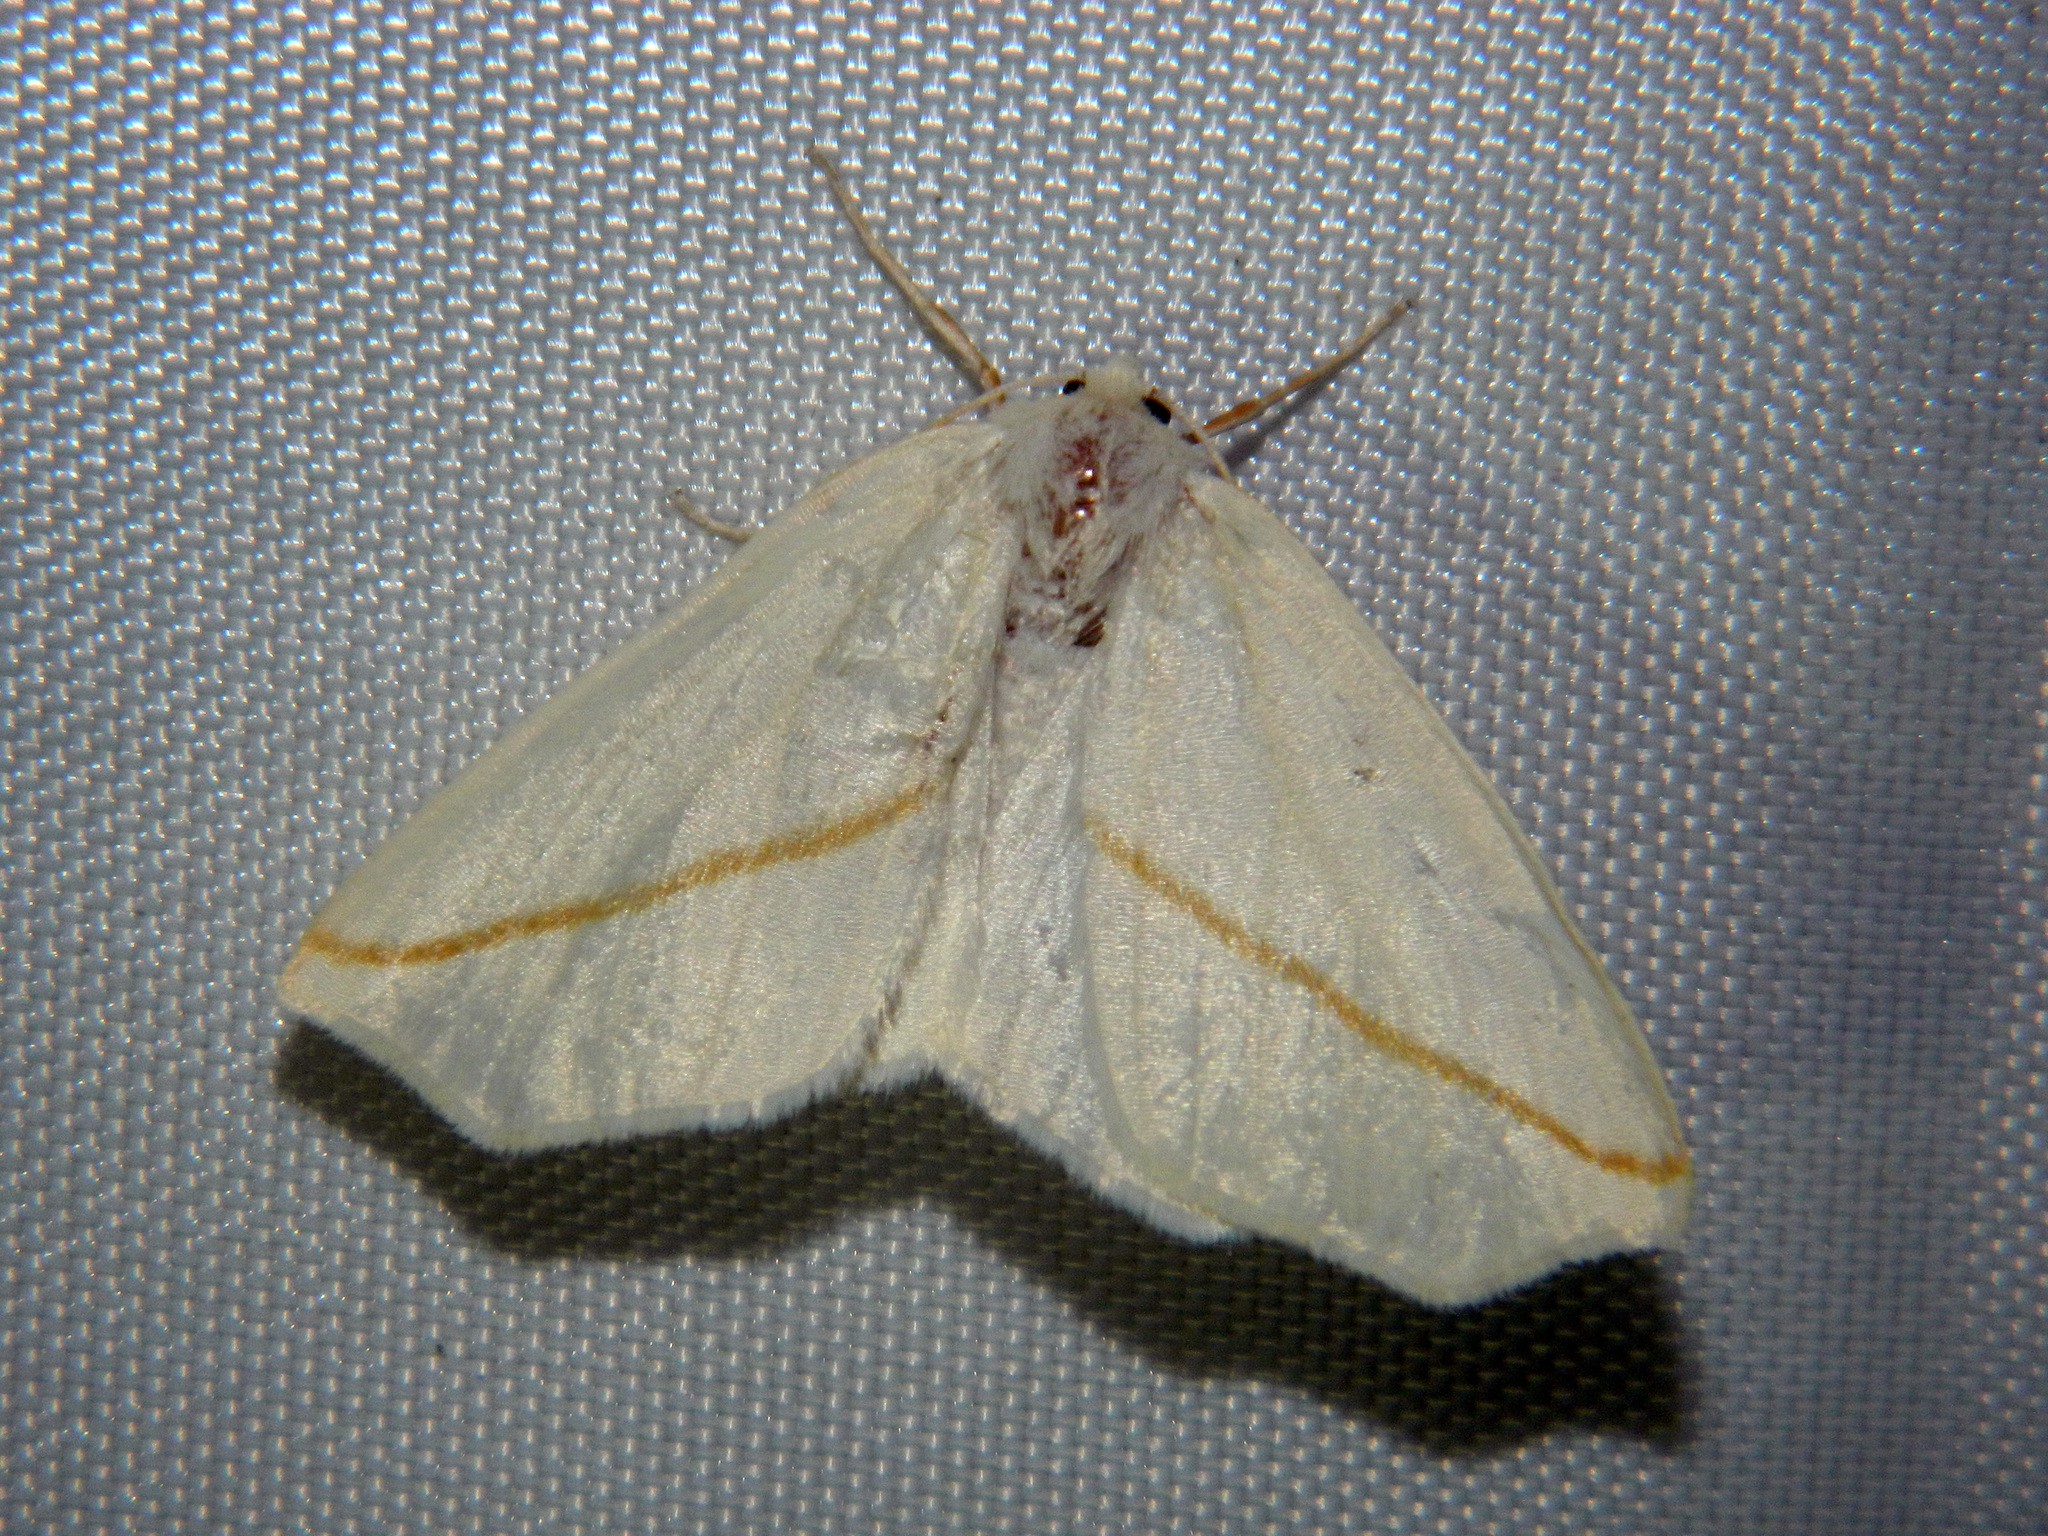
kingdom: Animalia
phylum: Arthropoda
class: Insecta
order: Lepidoptera
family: Geometridae
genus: Tetracis
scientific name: Tetracis cachexiata
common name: White slant-line
